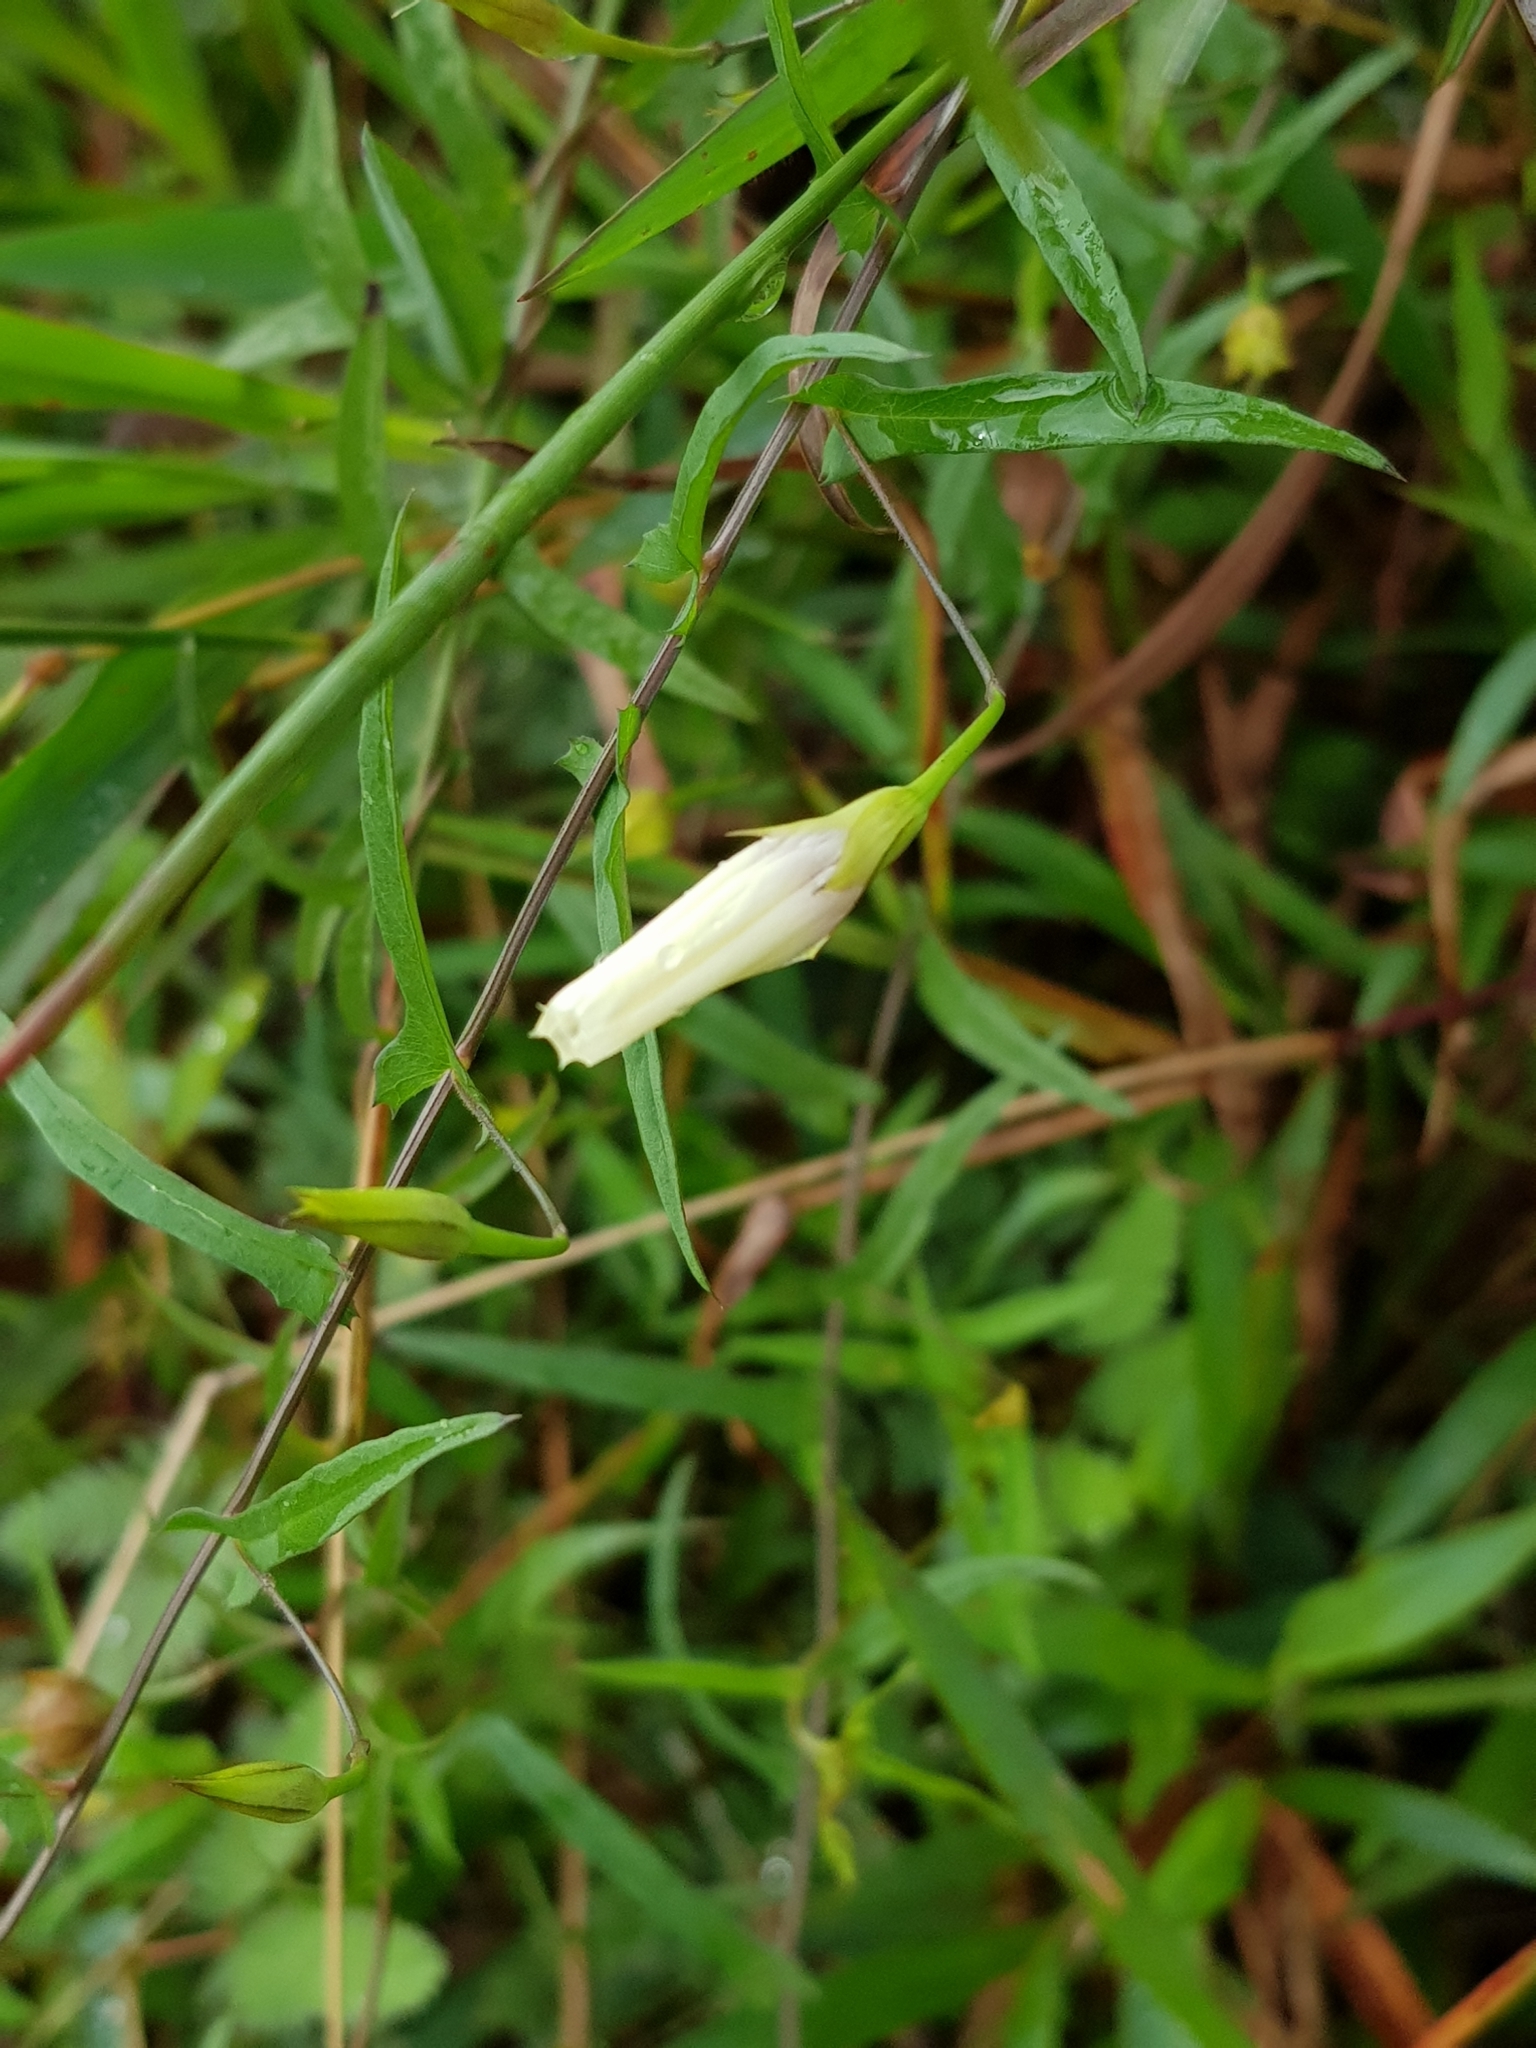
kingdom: Plantae
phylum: Tracheophyta
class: Magnoliopsida
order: Solanales
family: Convolvulaceae
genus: Xenostegia
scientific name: Xenostegia tridentata
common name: African morningvine
